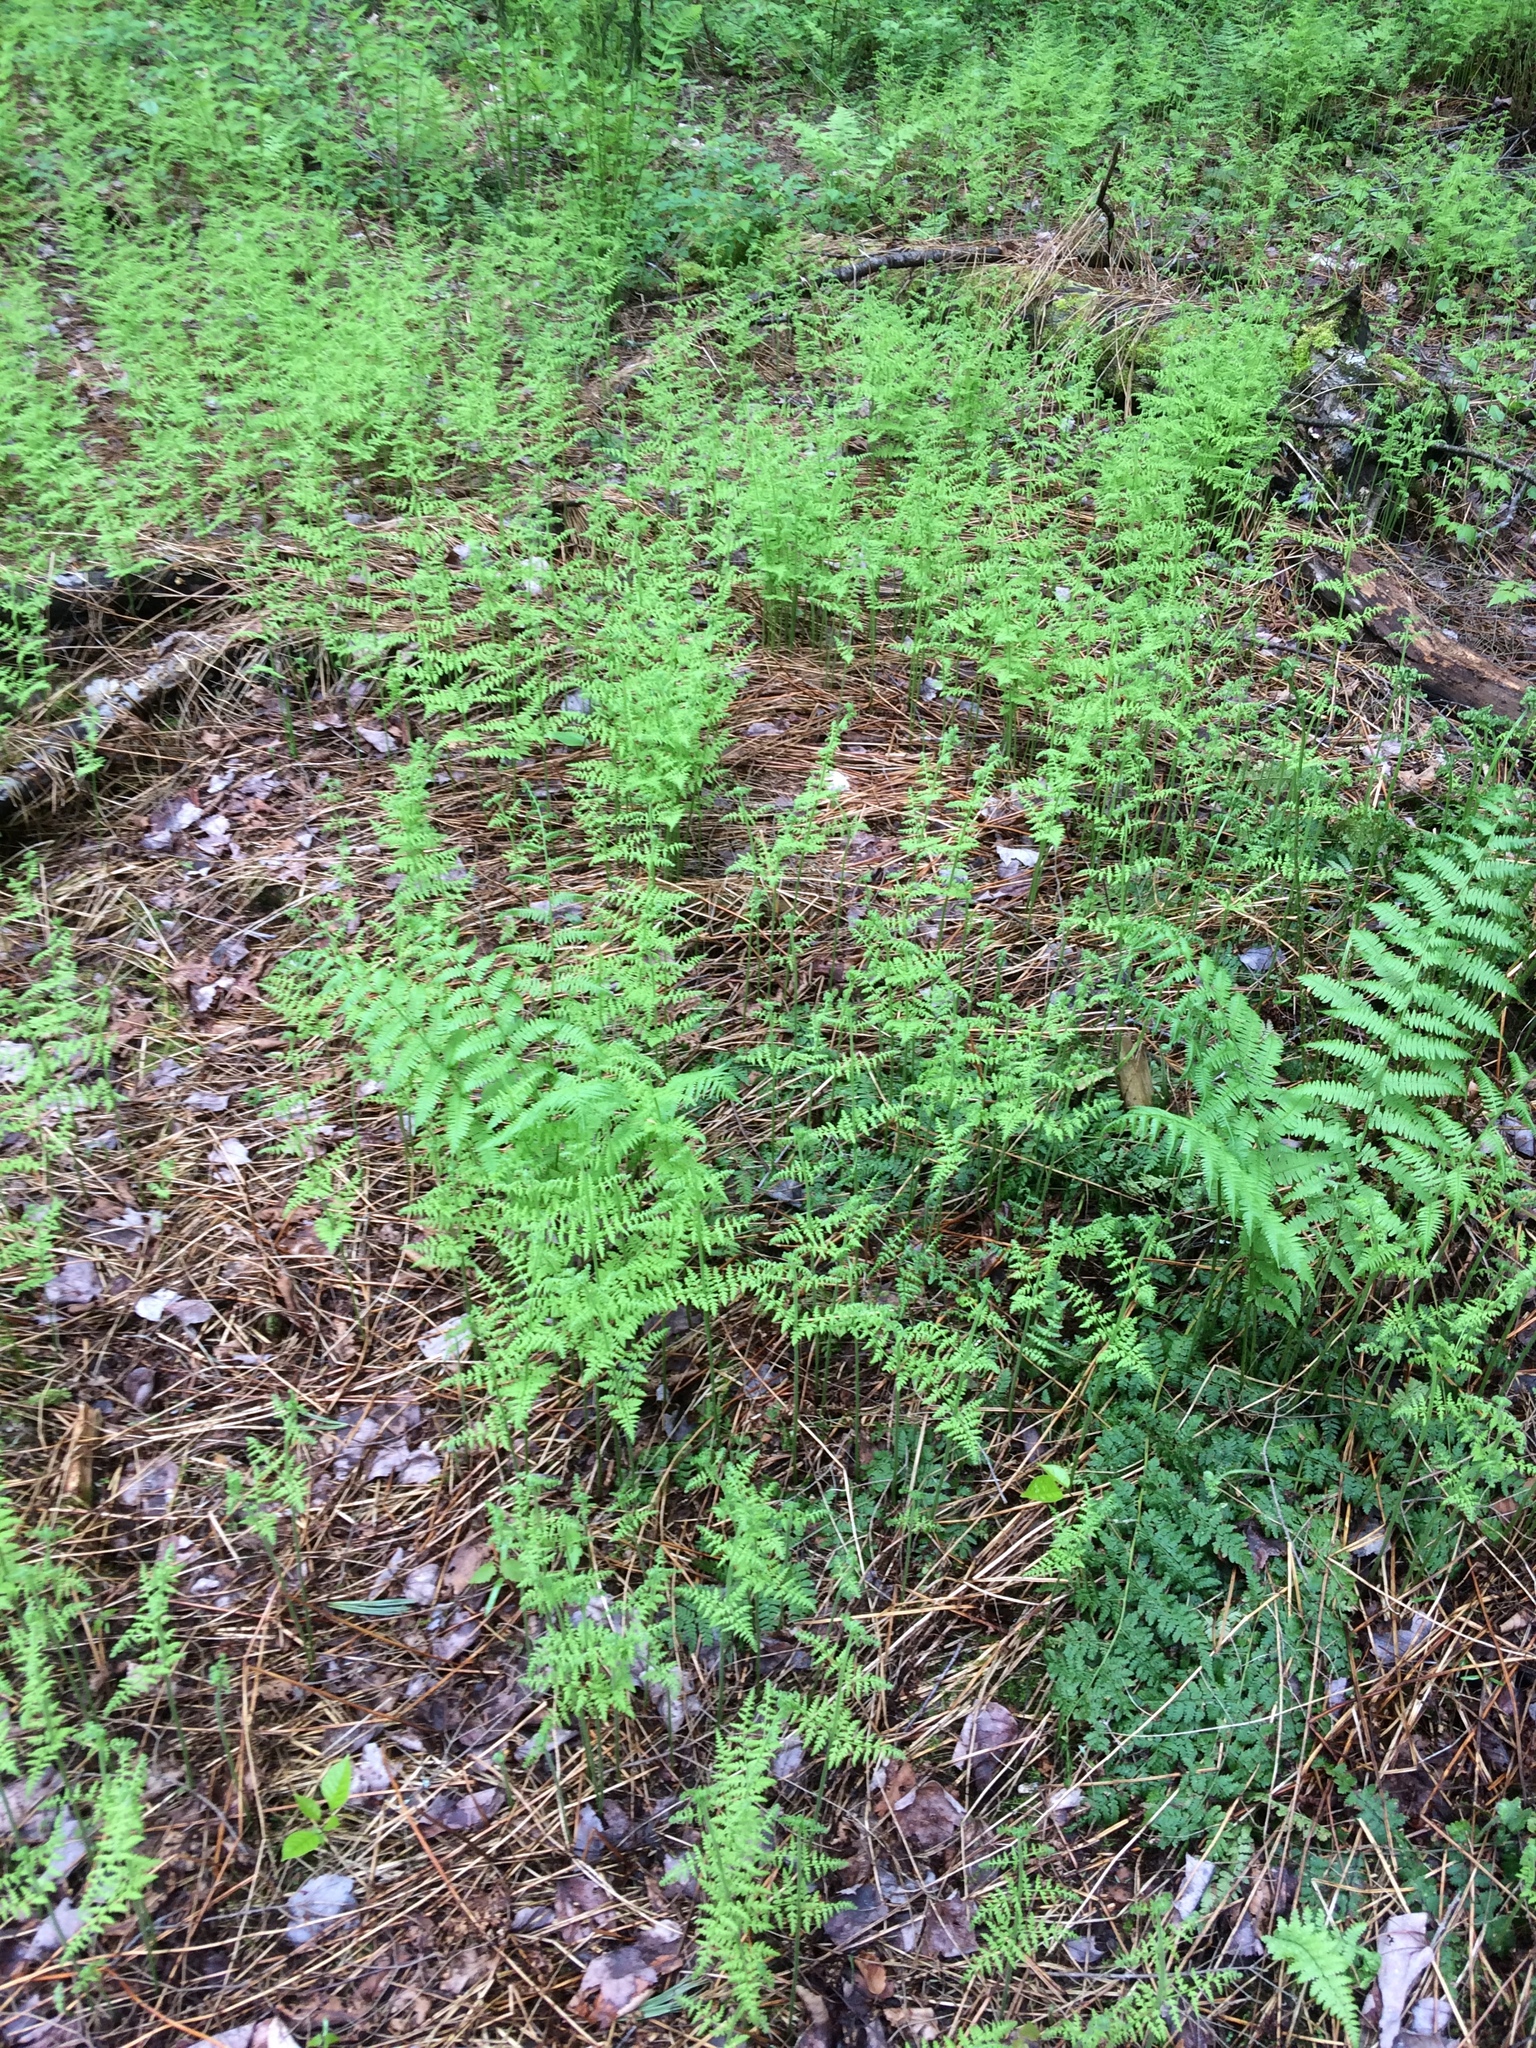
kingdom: Plantae
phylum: Tracheophyta
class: Polypodiopsida
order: Polypodiales
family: Dennstaedtiaceae
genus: Sitobolium
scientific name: Sitobolium punctilobum
